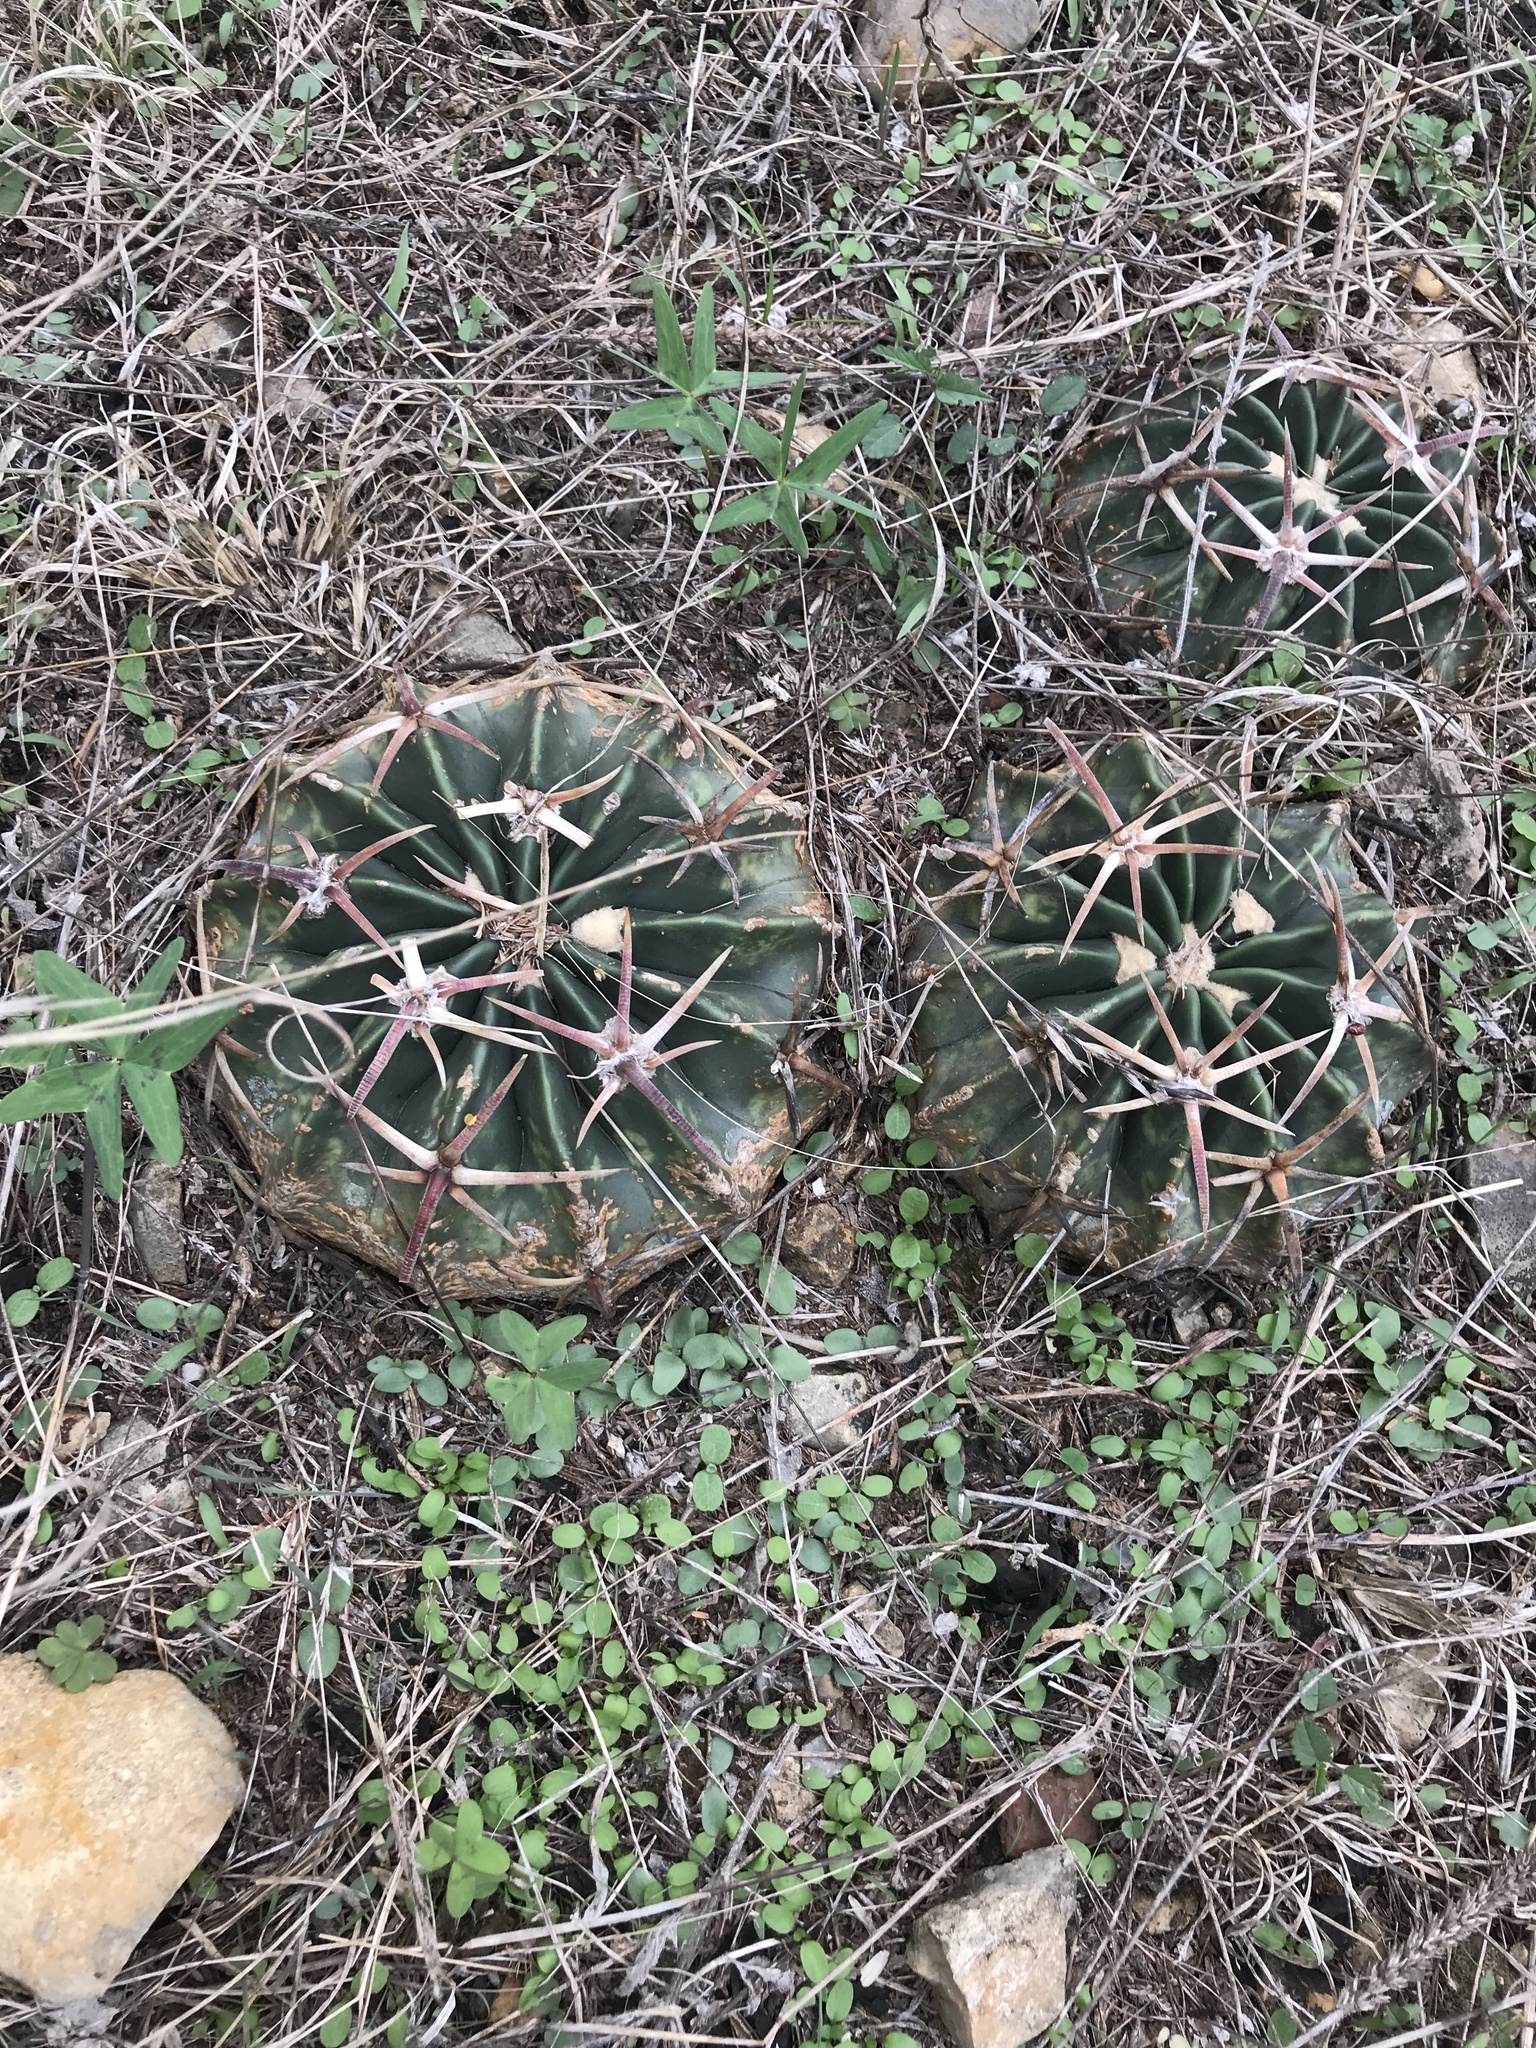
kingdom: Plantae
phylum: Tracheophyta
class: Magnoliopsida
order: Caryophyllales
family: Cactaceae
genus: Echinocactus
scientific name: Echinocactus texensis
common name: Devil's pincushion
